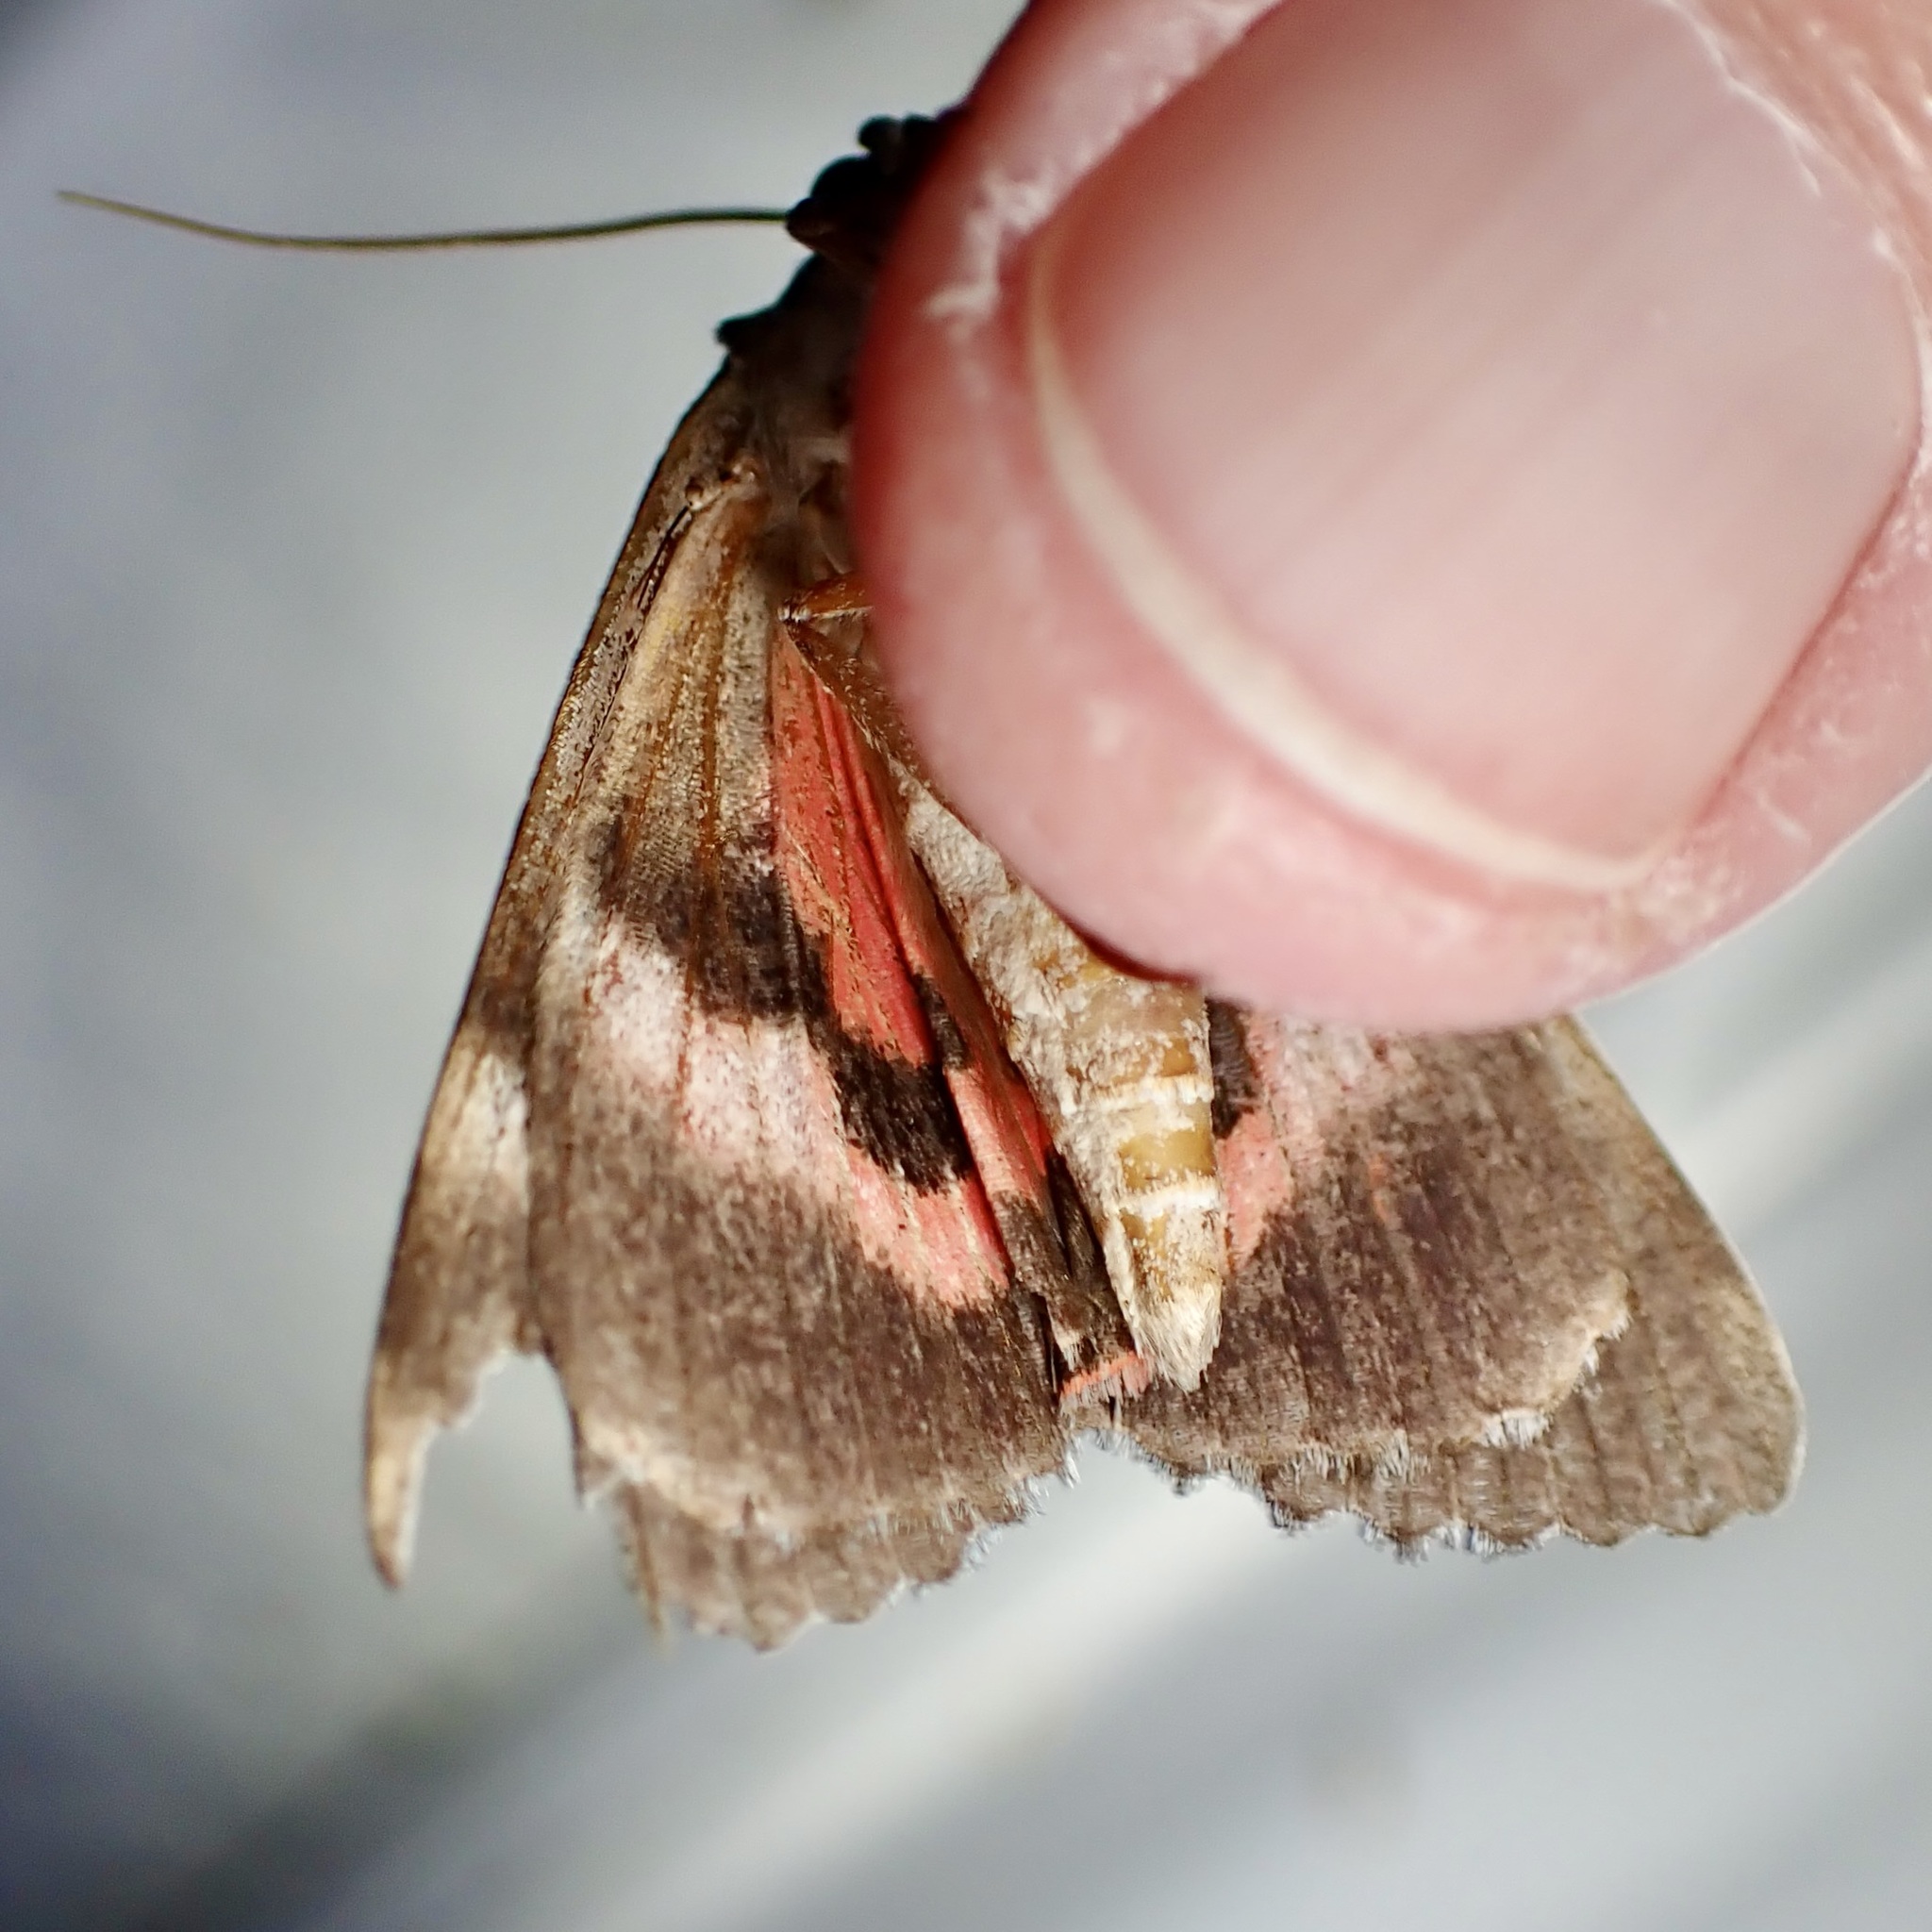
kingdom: Animalia
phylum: Arthropoda
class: Insecta
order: Lepidoptera
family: Erebidae
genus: Catocala
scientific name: Catocala violenta
